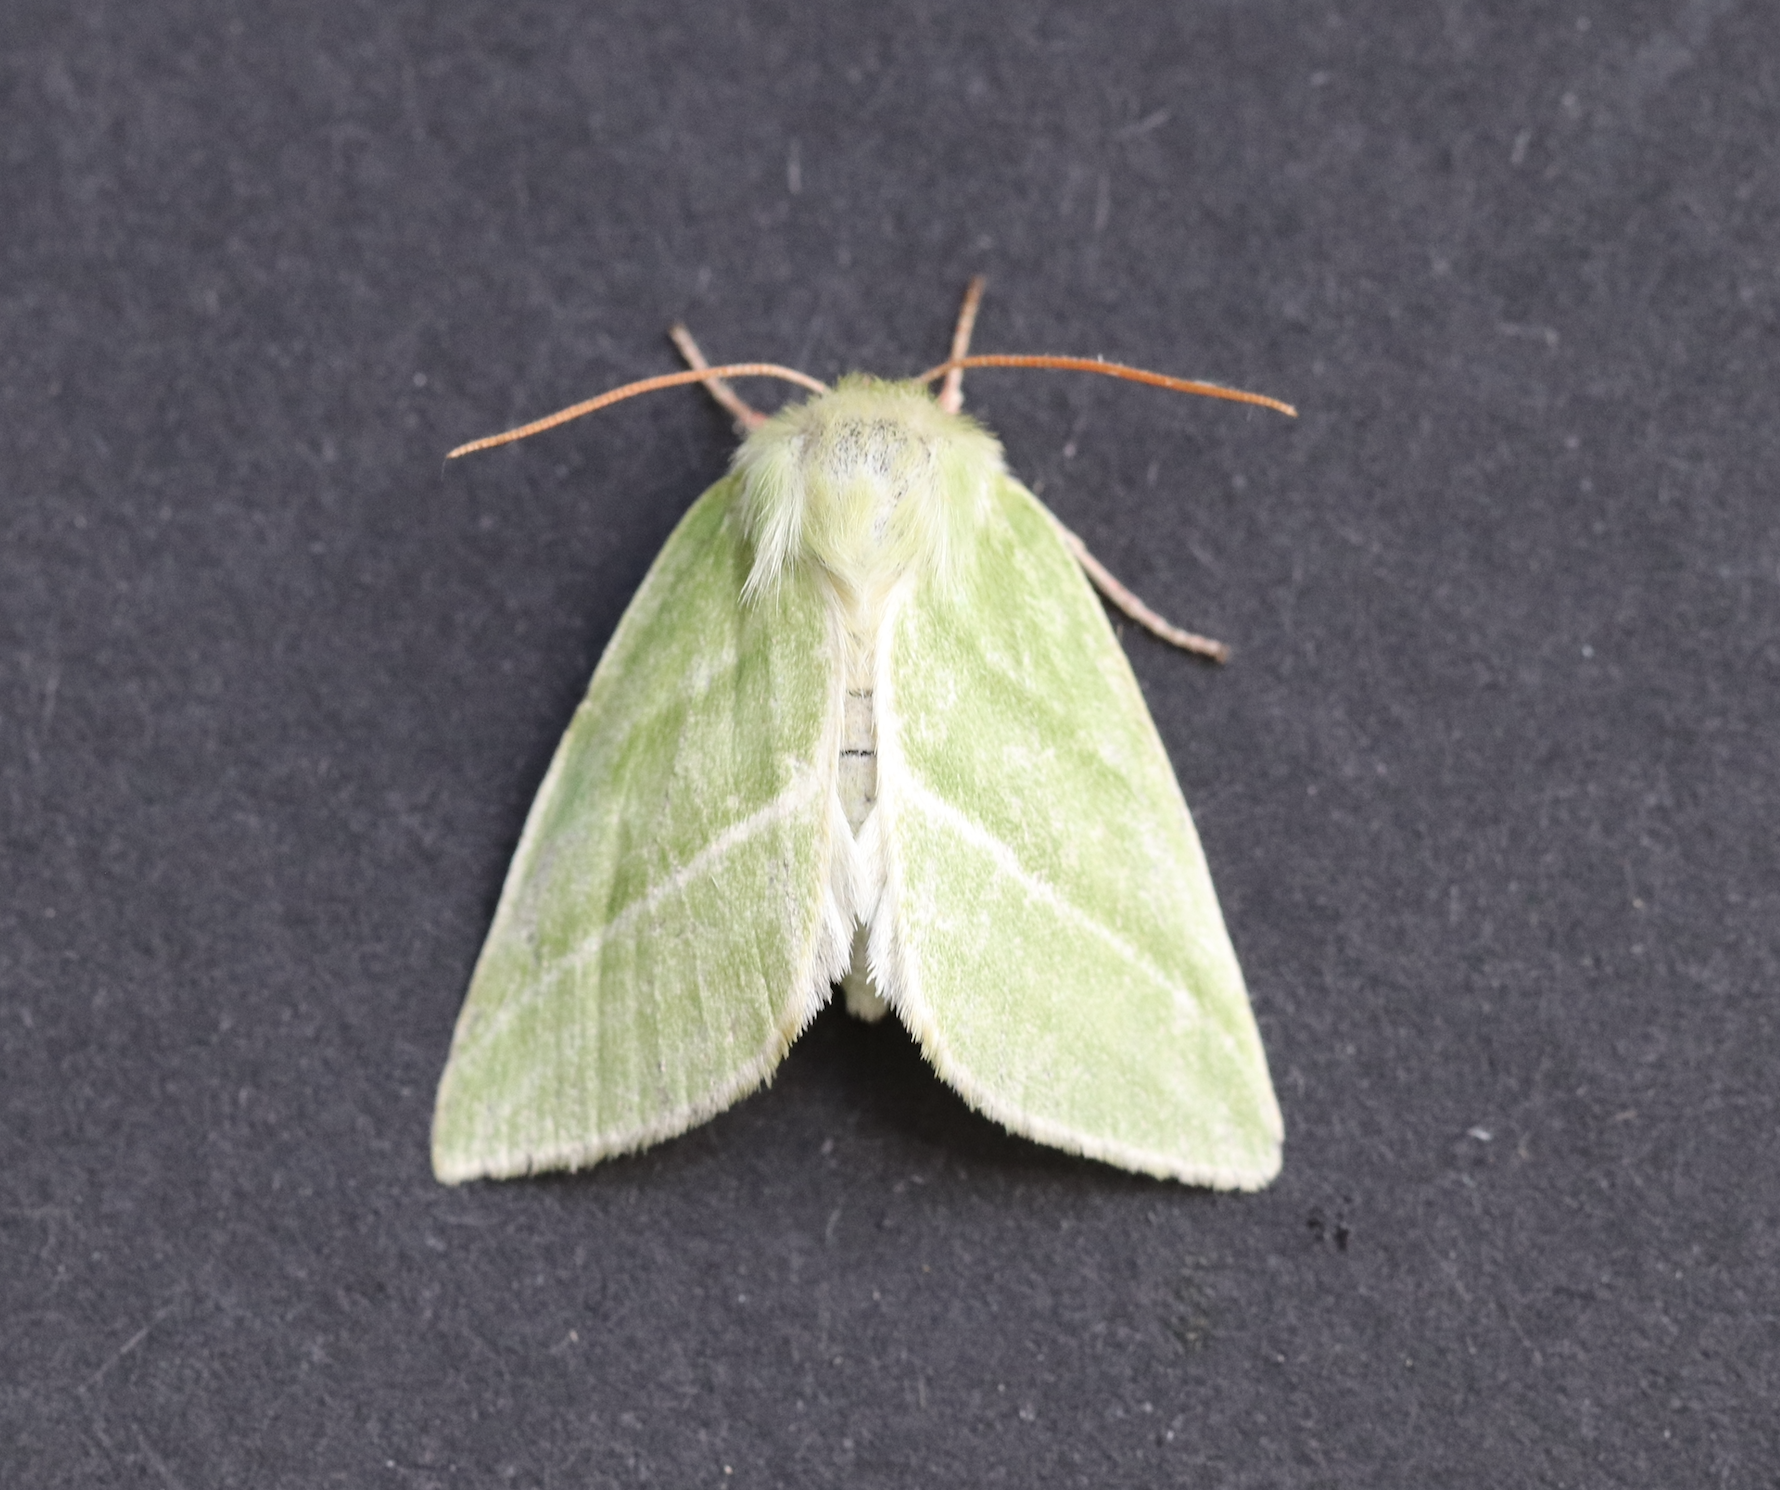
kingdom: Animalia
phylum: Arthropoda
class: Insecta
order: Lepidoptera
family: Nolidae
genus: Pseudoips
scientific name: Pseudoips prasinana
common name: Green silver-lines
